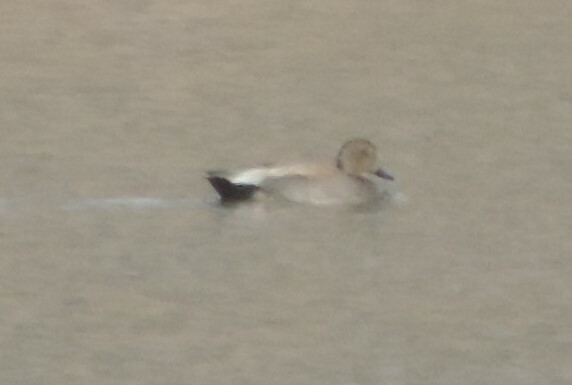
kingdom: Animalia
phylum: Chordata
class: Aves
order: Anseriformes
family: Anatidae
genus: Mareca
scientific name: Mareca strepera
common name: Gadwall
